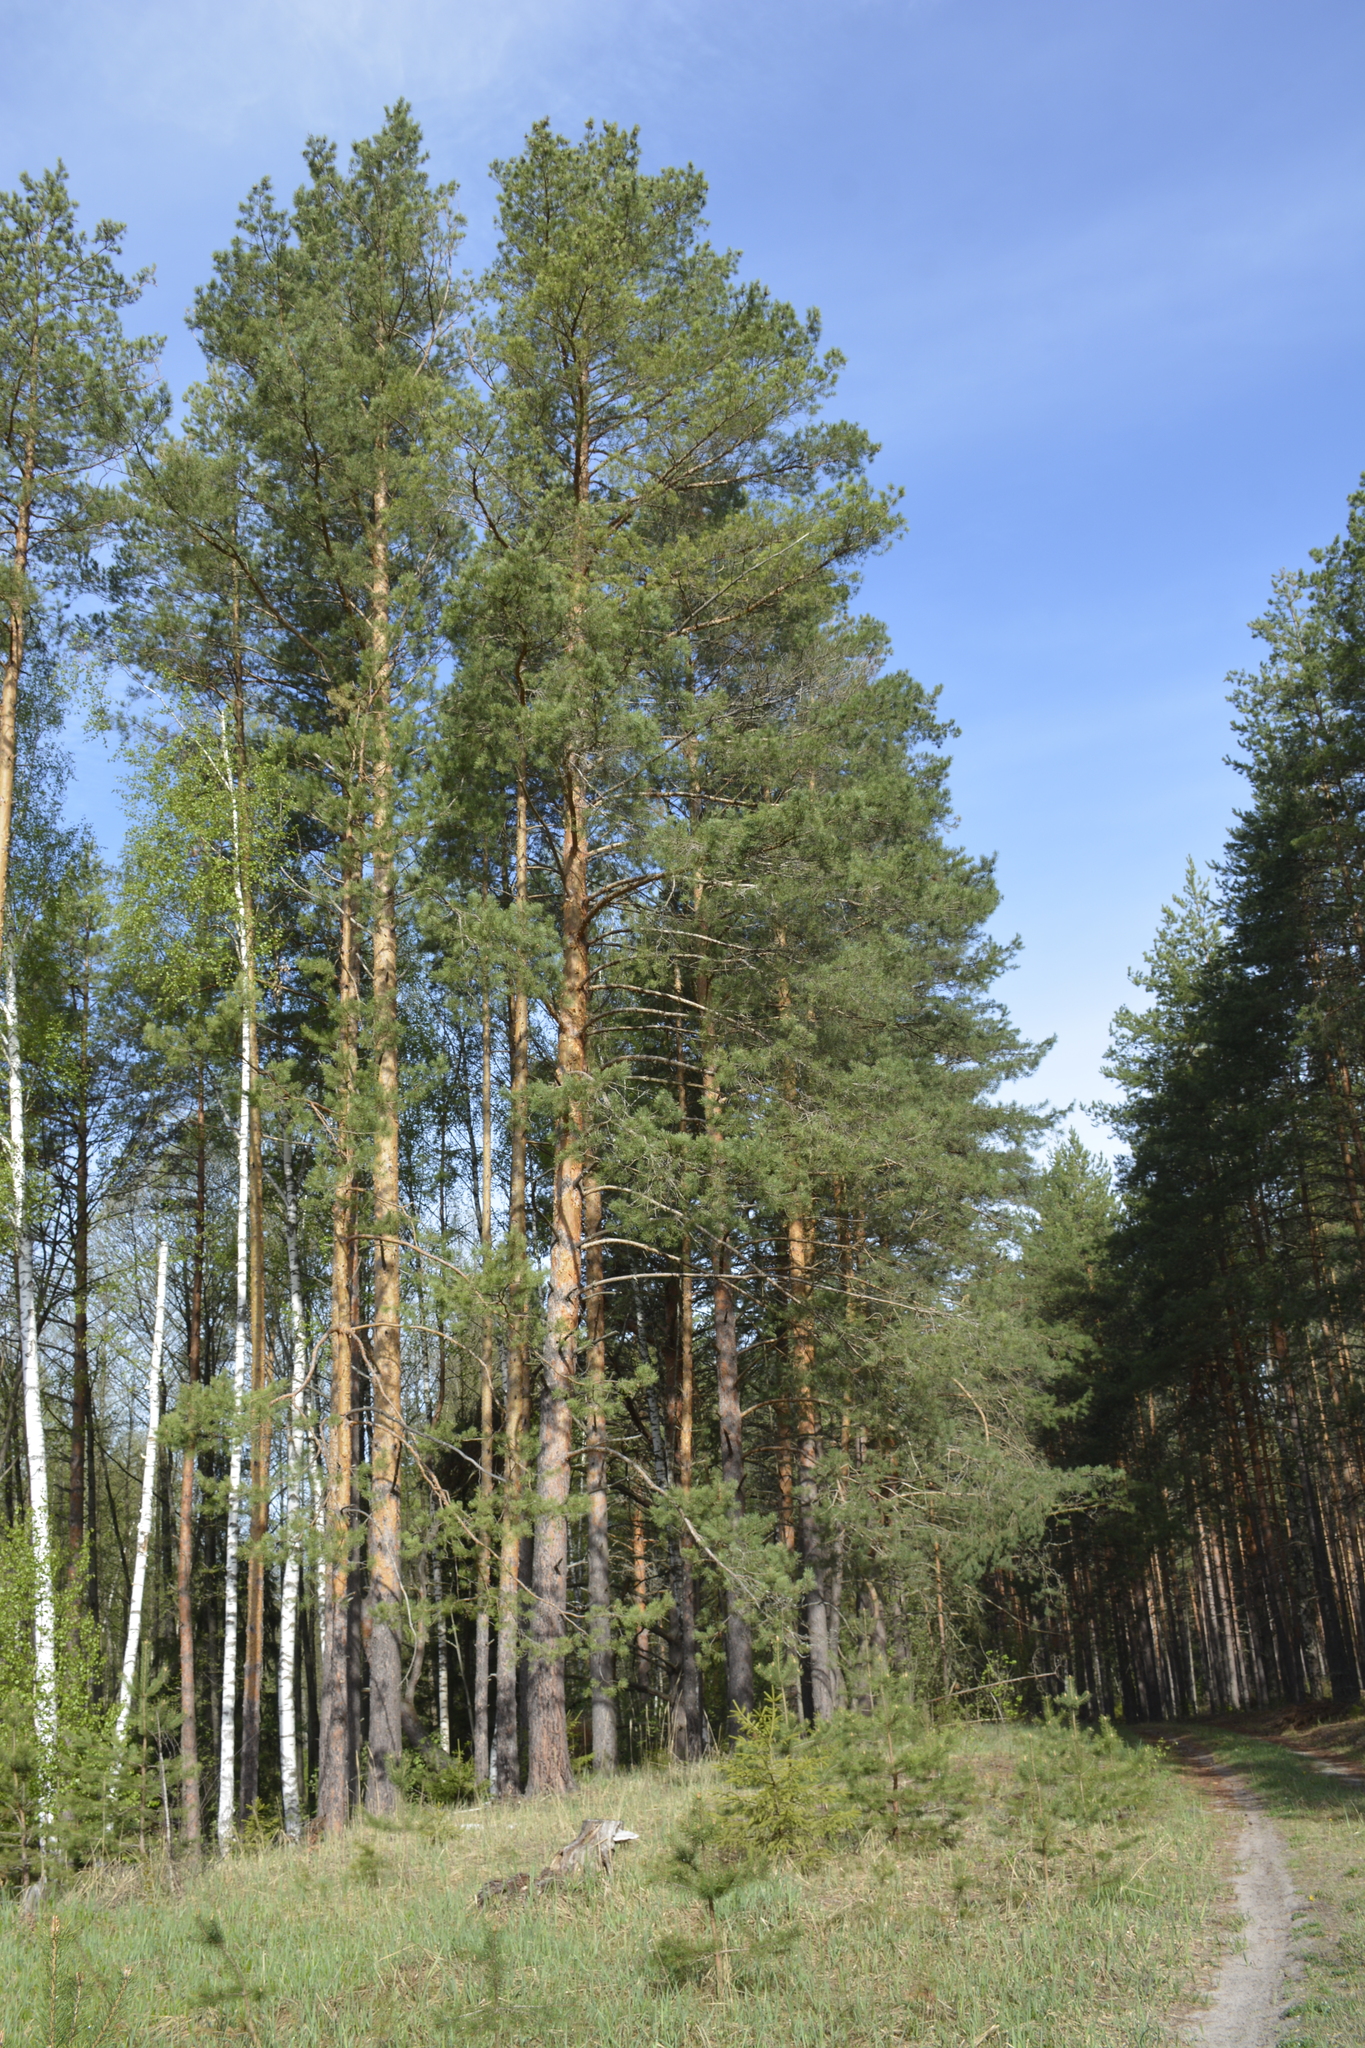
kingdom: Plantae
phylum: Tracheophyta
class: Pinopsida
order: Pinales
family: Pinaceae
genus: Pinus
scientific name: Pinus sylvestris
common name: Scots pine
